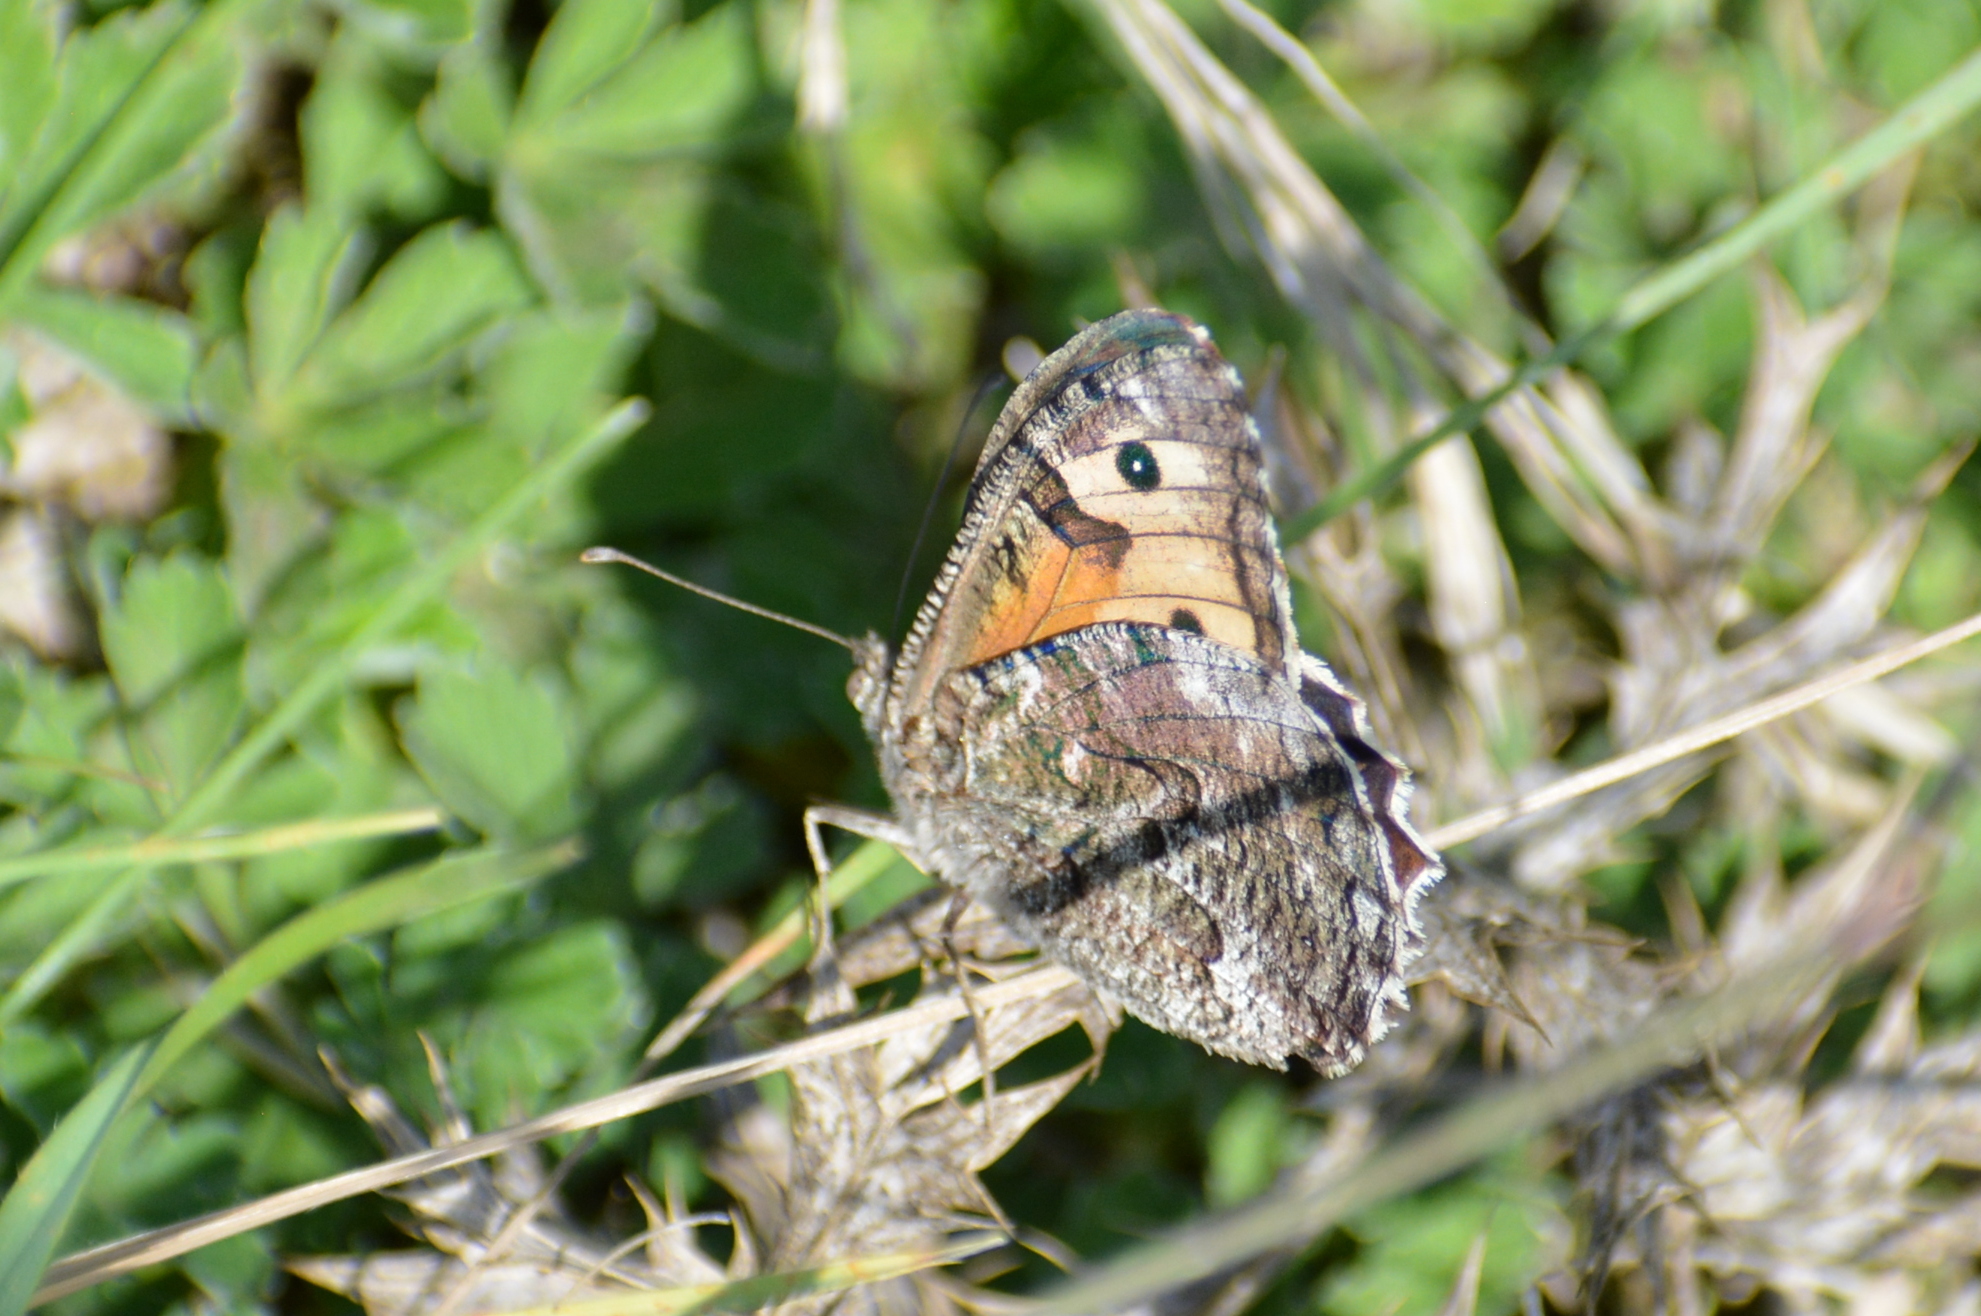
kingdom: Animalia
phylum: Arthropoda
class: Insecta
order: Lepidoptera
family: Nymphalidae
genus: Hipparchia
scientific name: Hipparchia semele
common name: Grayling
